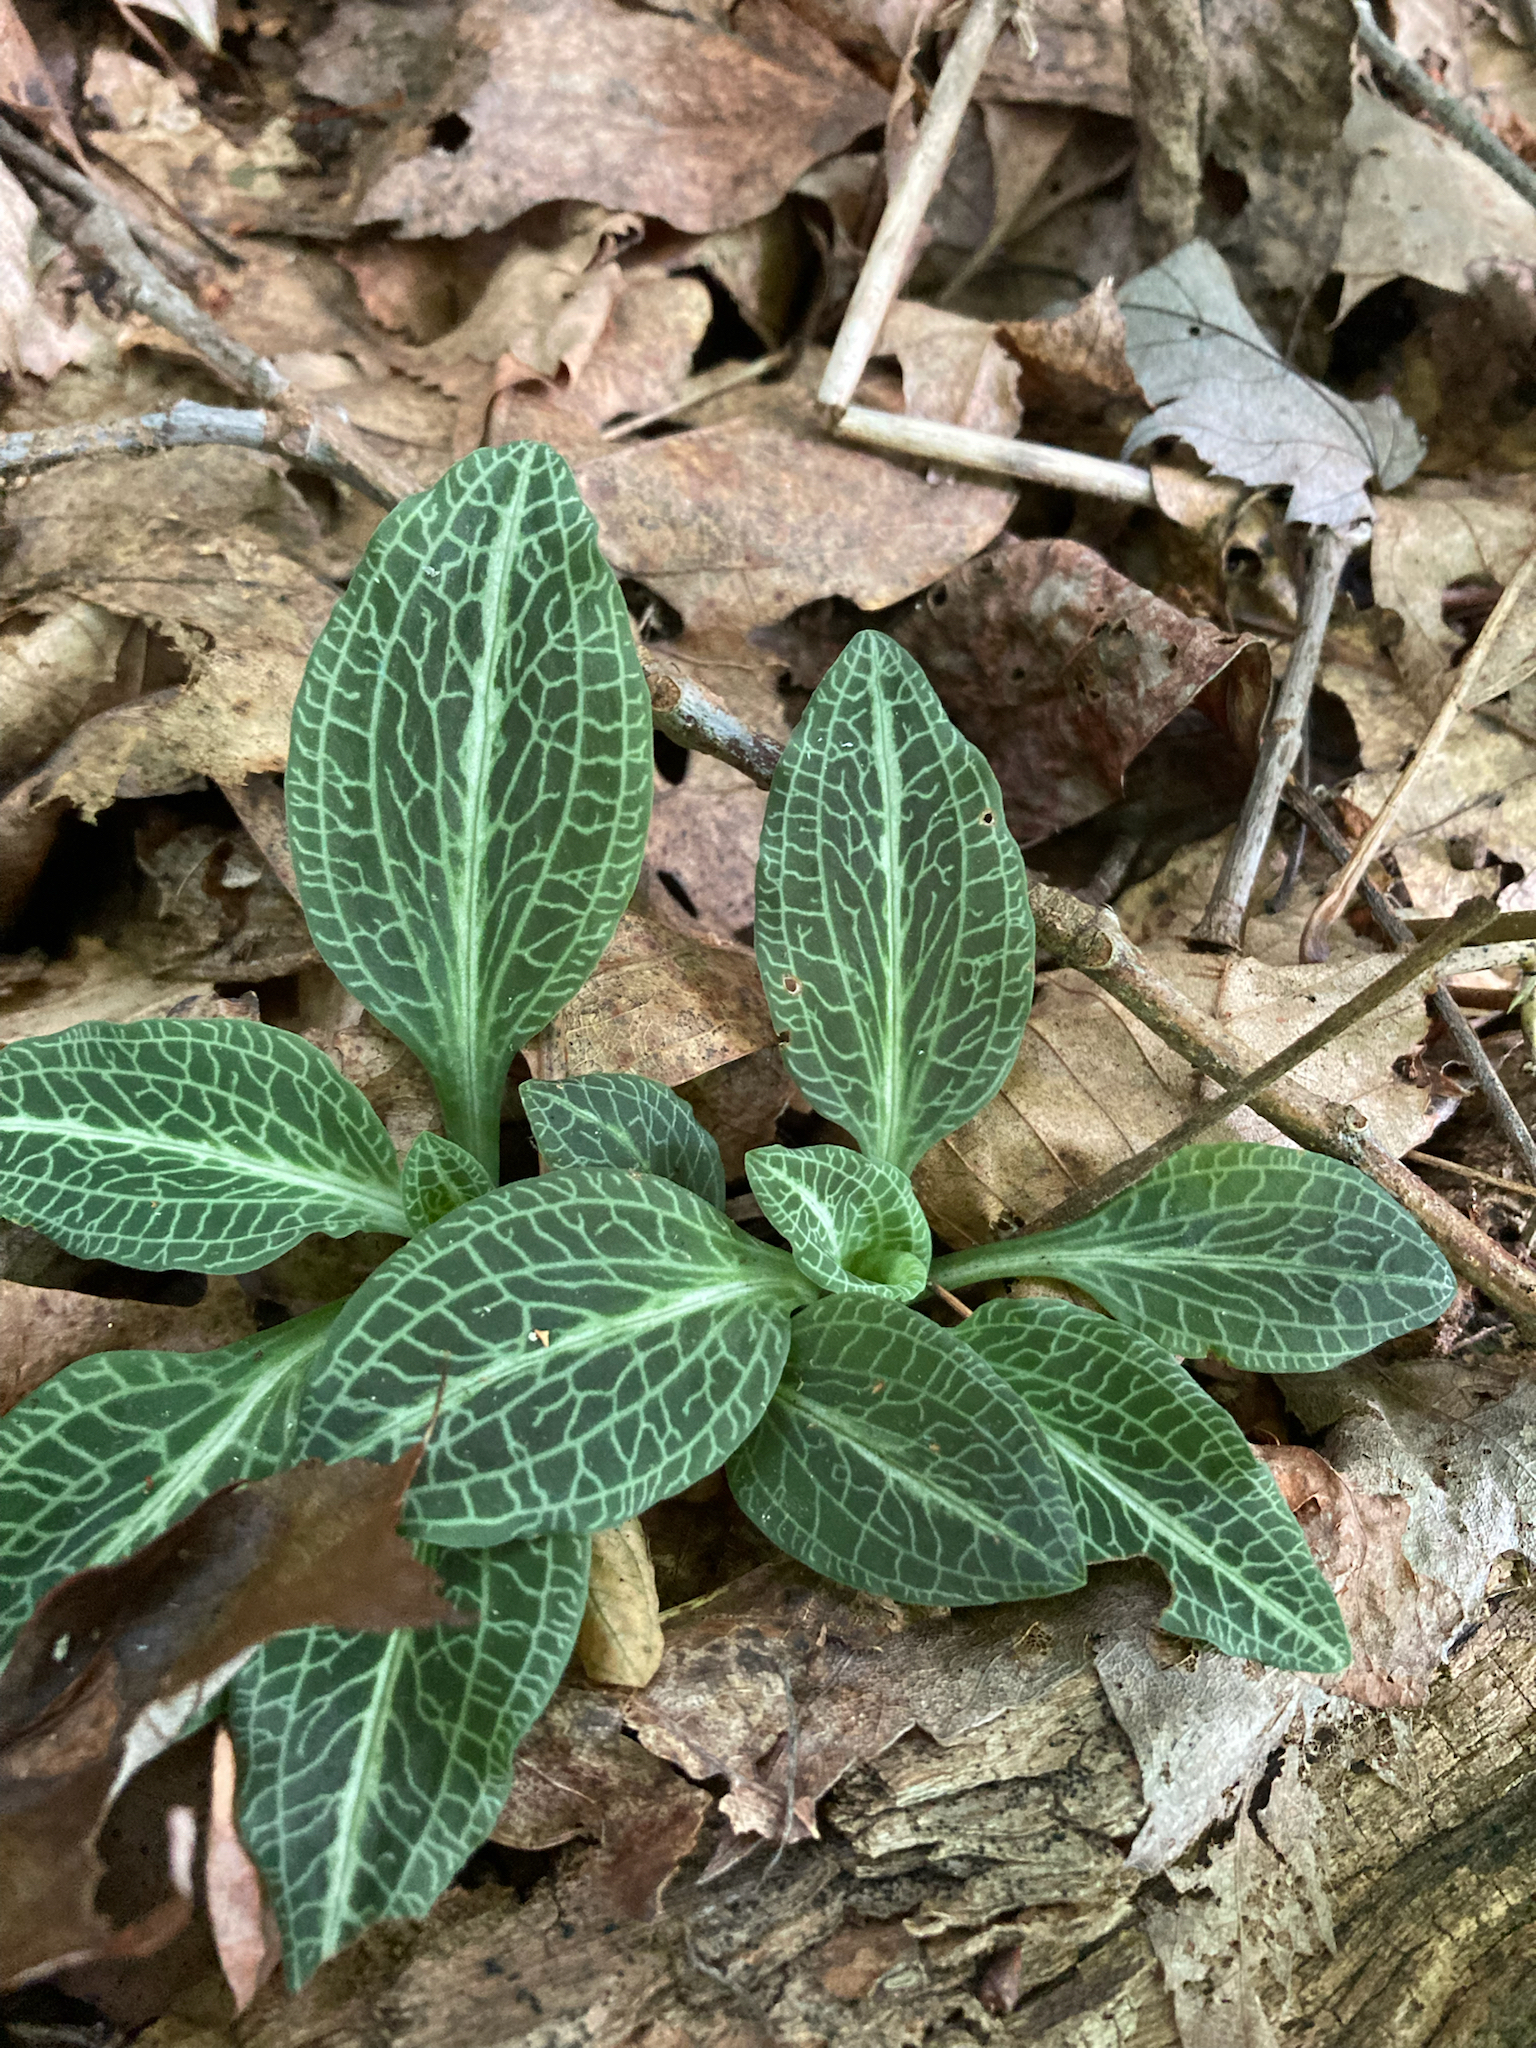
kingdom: Plantae
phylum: Tracheophyta
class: Liliopsida
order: Asparagales
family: Orchidaceae
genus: Goodyera
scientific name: Goodyera pubescens
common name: Downy rattlesnake-plantain
